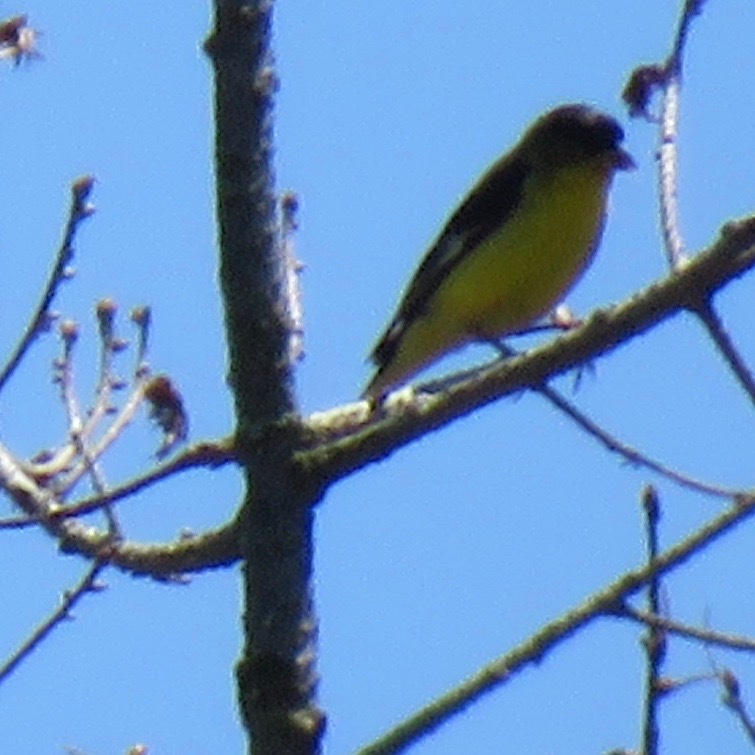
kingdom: Animalia
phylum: Chordata
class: Aves
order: Passeriformes
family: Fringillidae
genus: Spinus
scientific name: Spinus psaltria
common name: Lesser goldfinch
